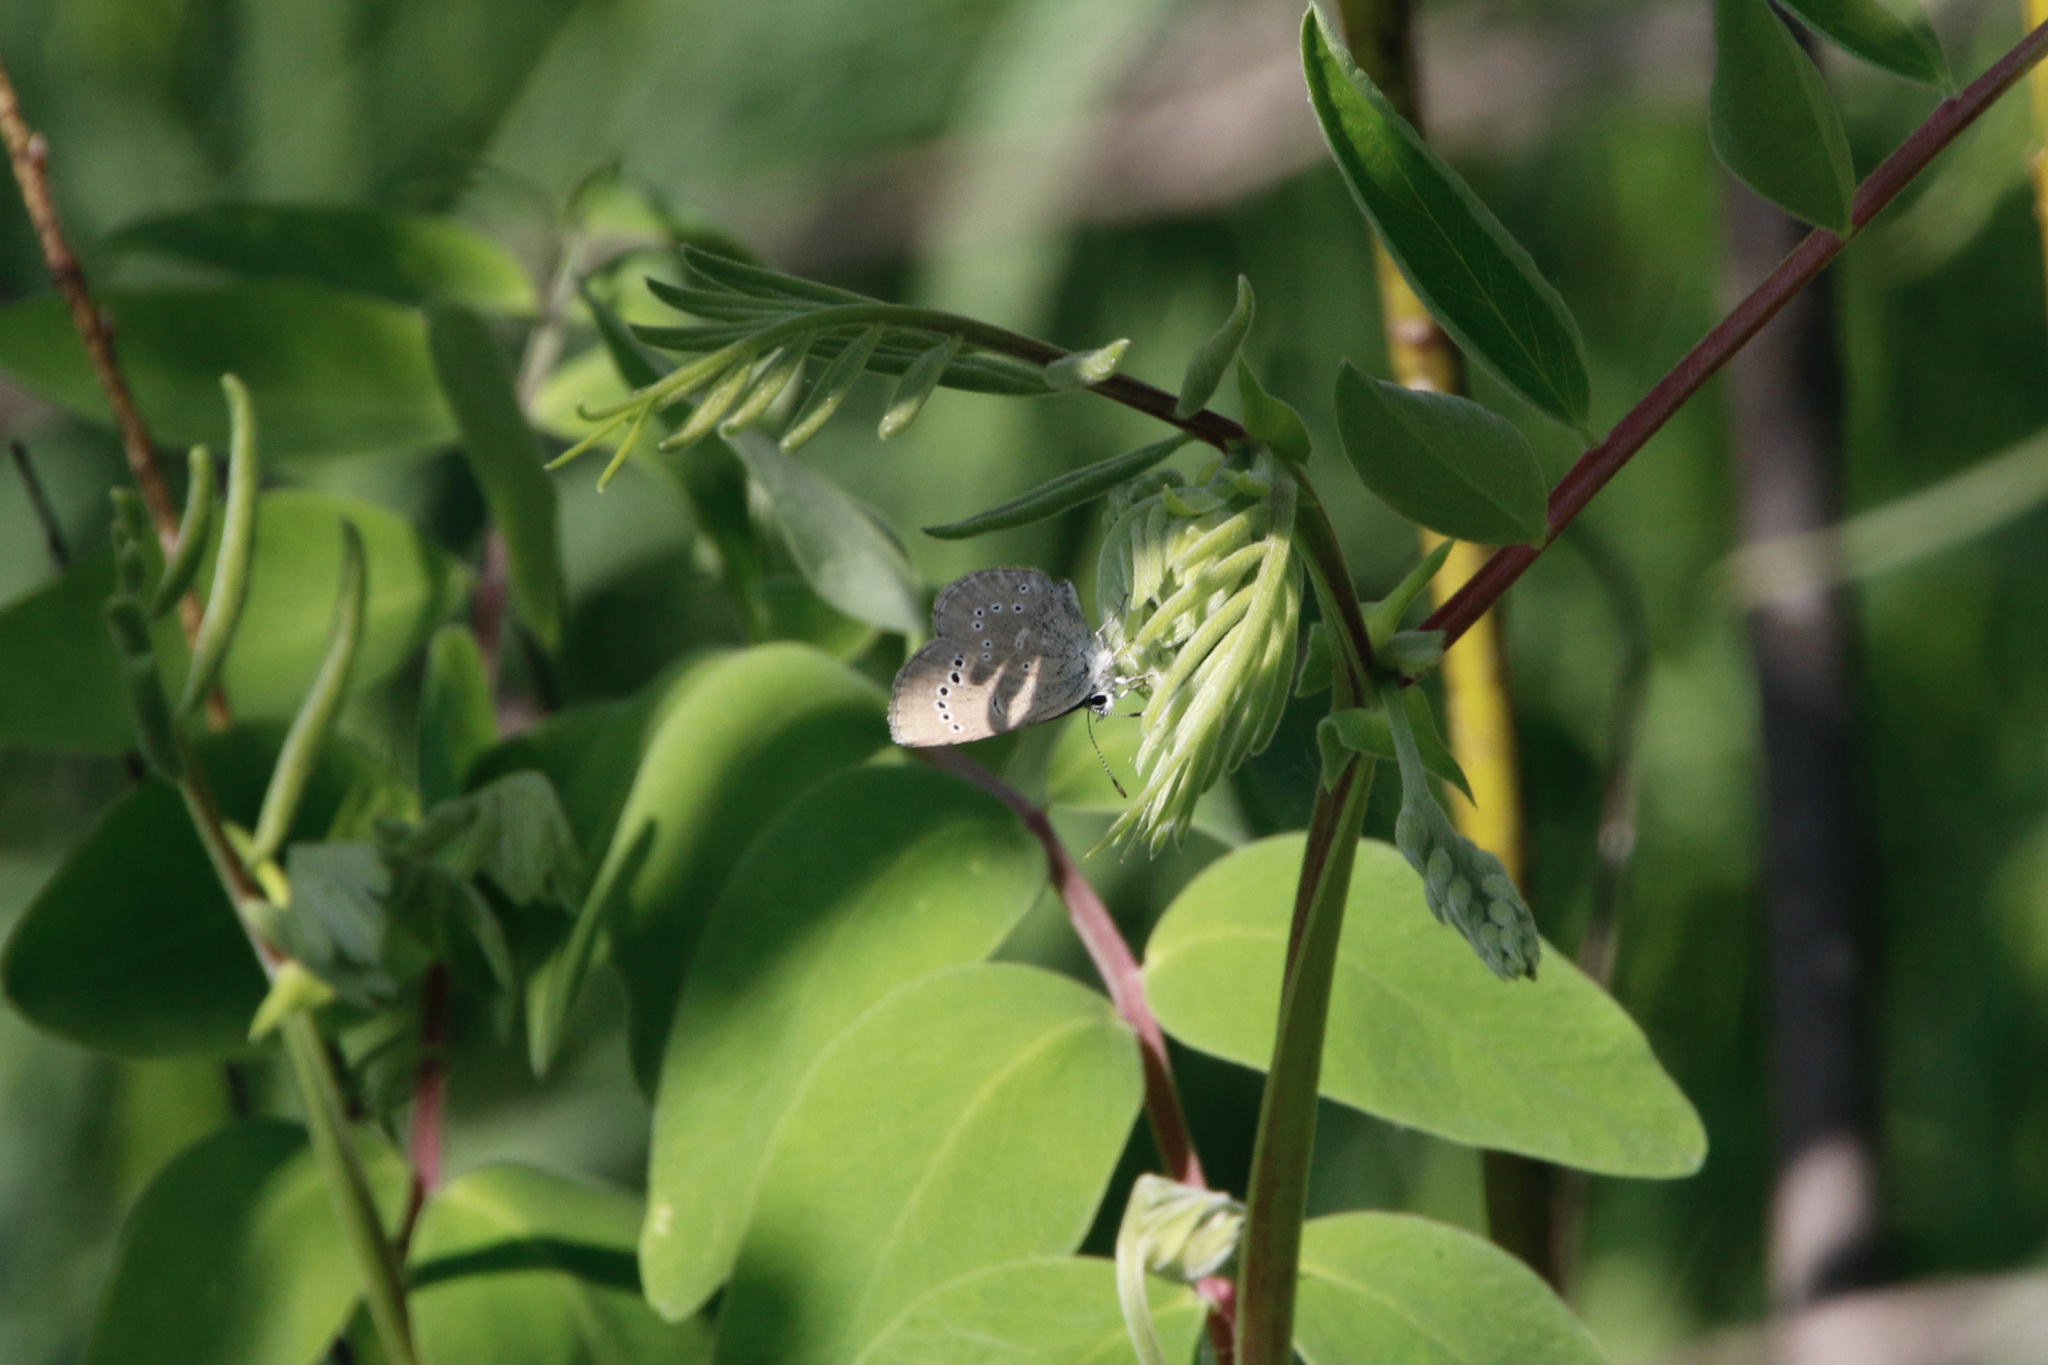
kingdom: Animalia
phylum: Arthropoda
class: Insecta
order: Lepidoptera
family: Lycaenidae
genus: Glaucopsyche
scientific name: Glaucopsyche lygdamus
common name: Silvery blue
